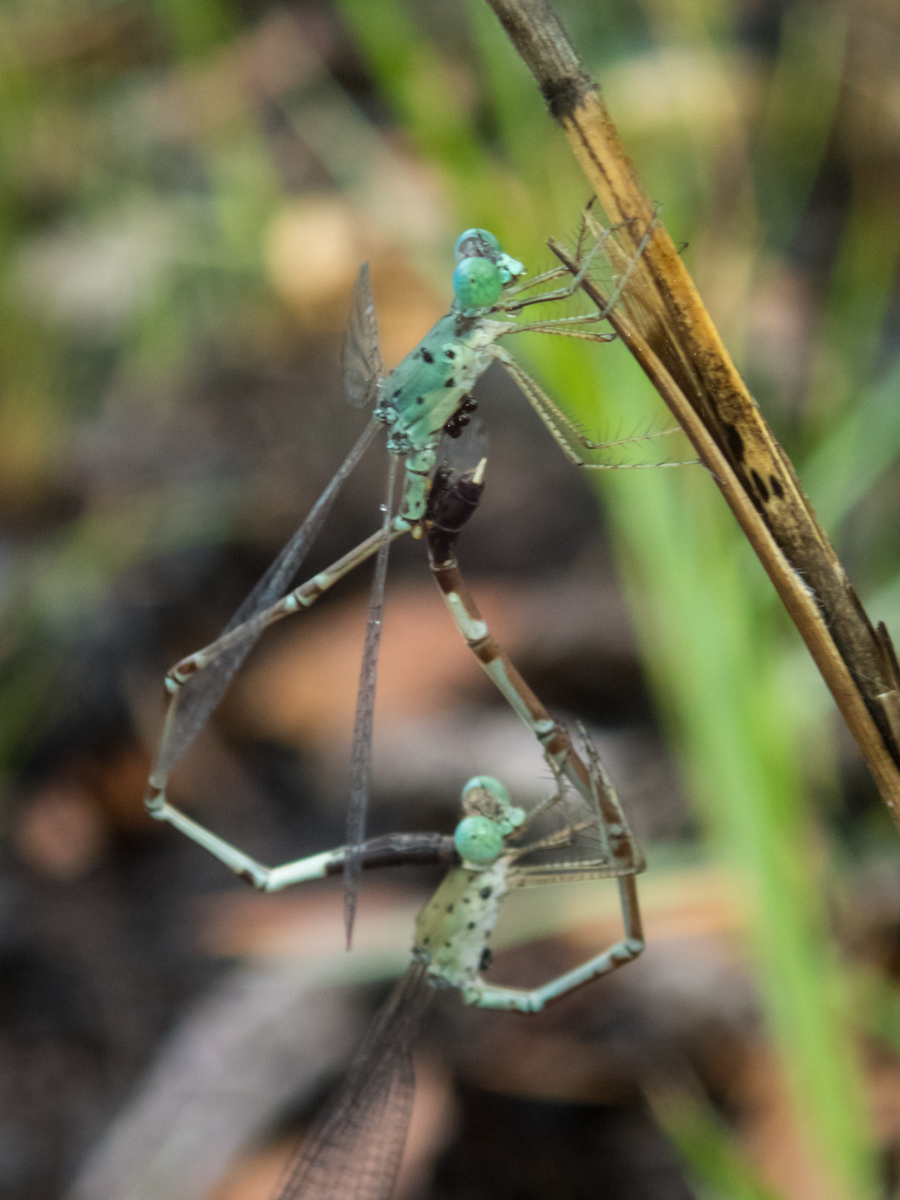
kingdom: Animalia
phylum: Arthropoda
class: Insecta
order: Odonata
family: Lestidae
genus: Platylestes
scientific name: Platylestes platystylus
